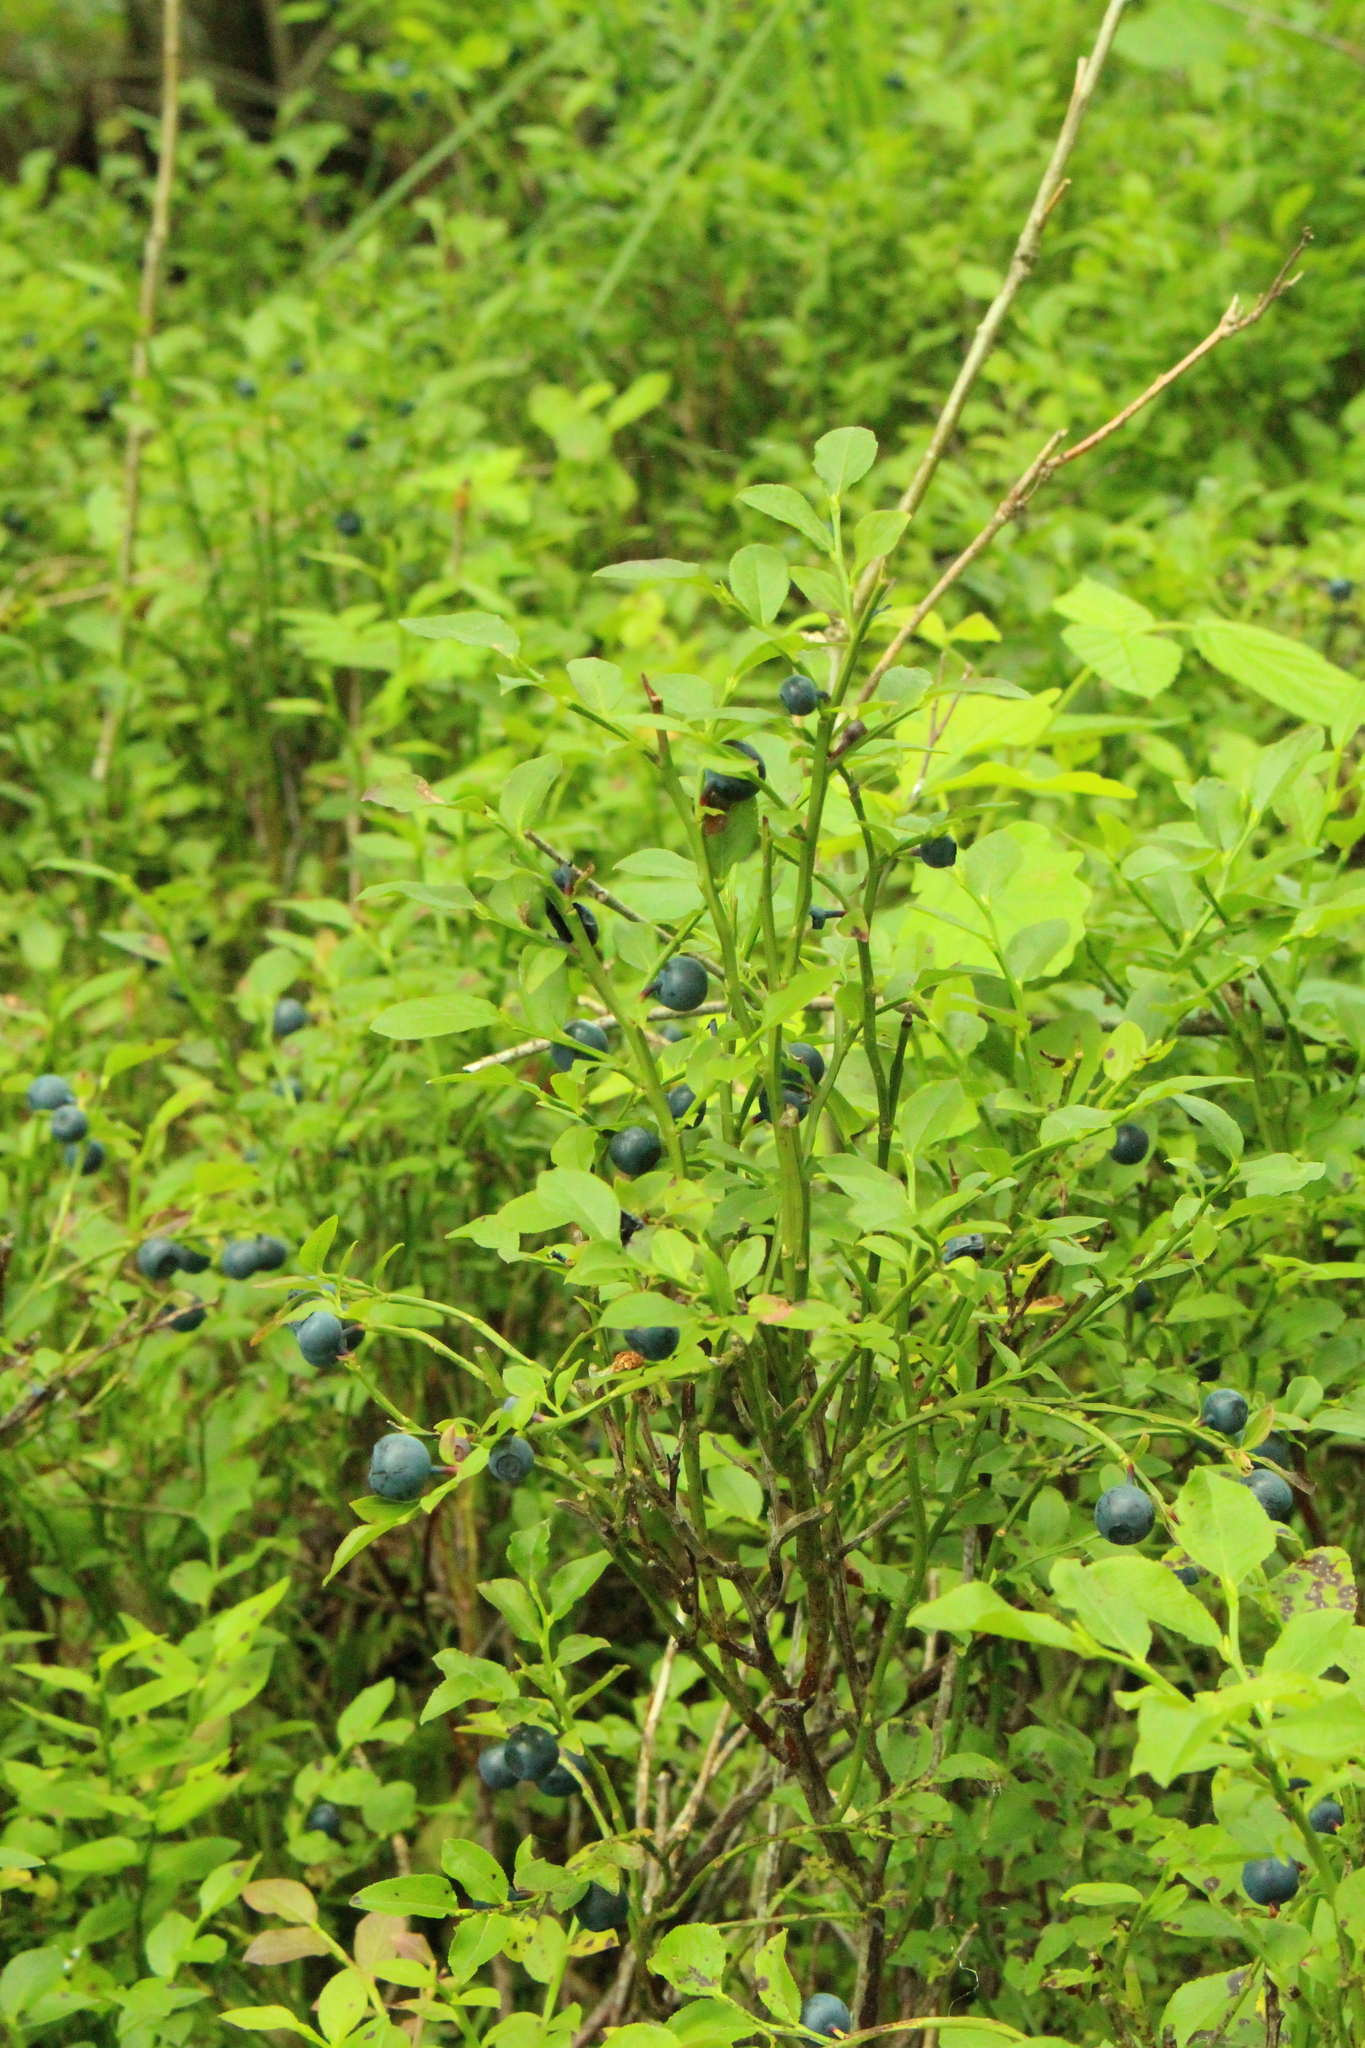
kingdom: Plantae
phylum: Tracheophyta
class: Magnoliopsida
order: Ericales
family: Ericaceae
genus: Vaccinium
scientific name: Vaccinium myrtillus
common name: Bilberry
